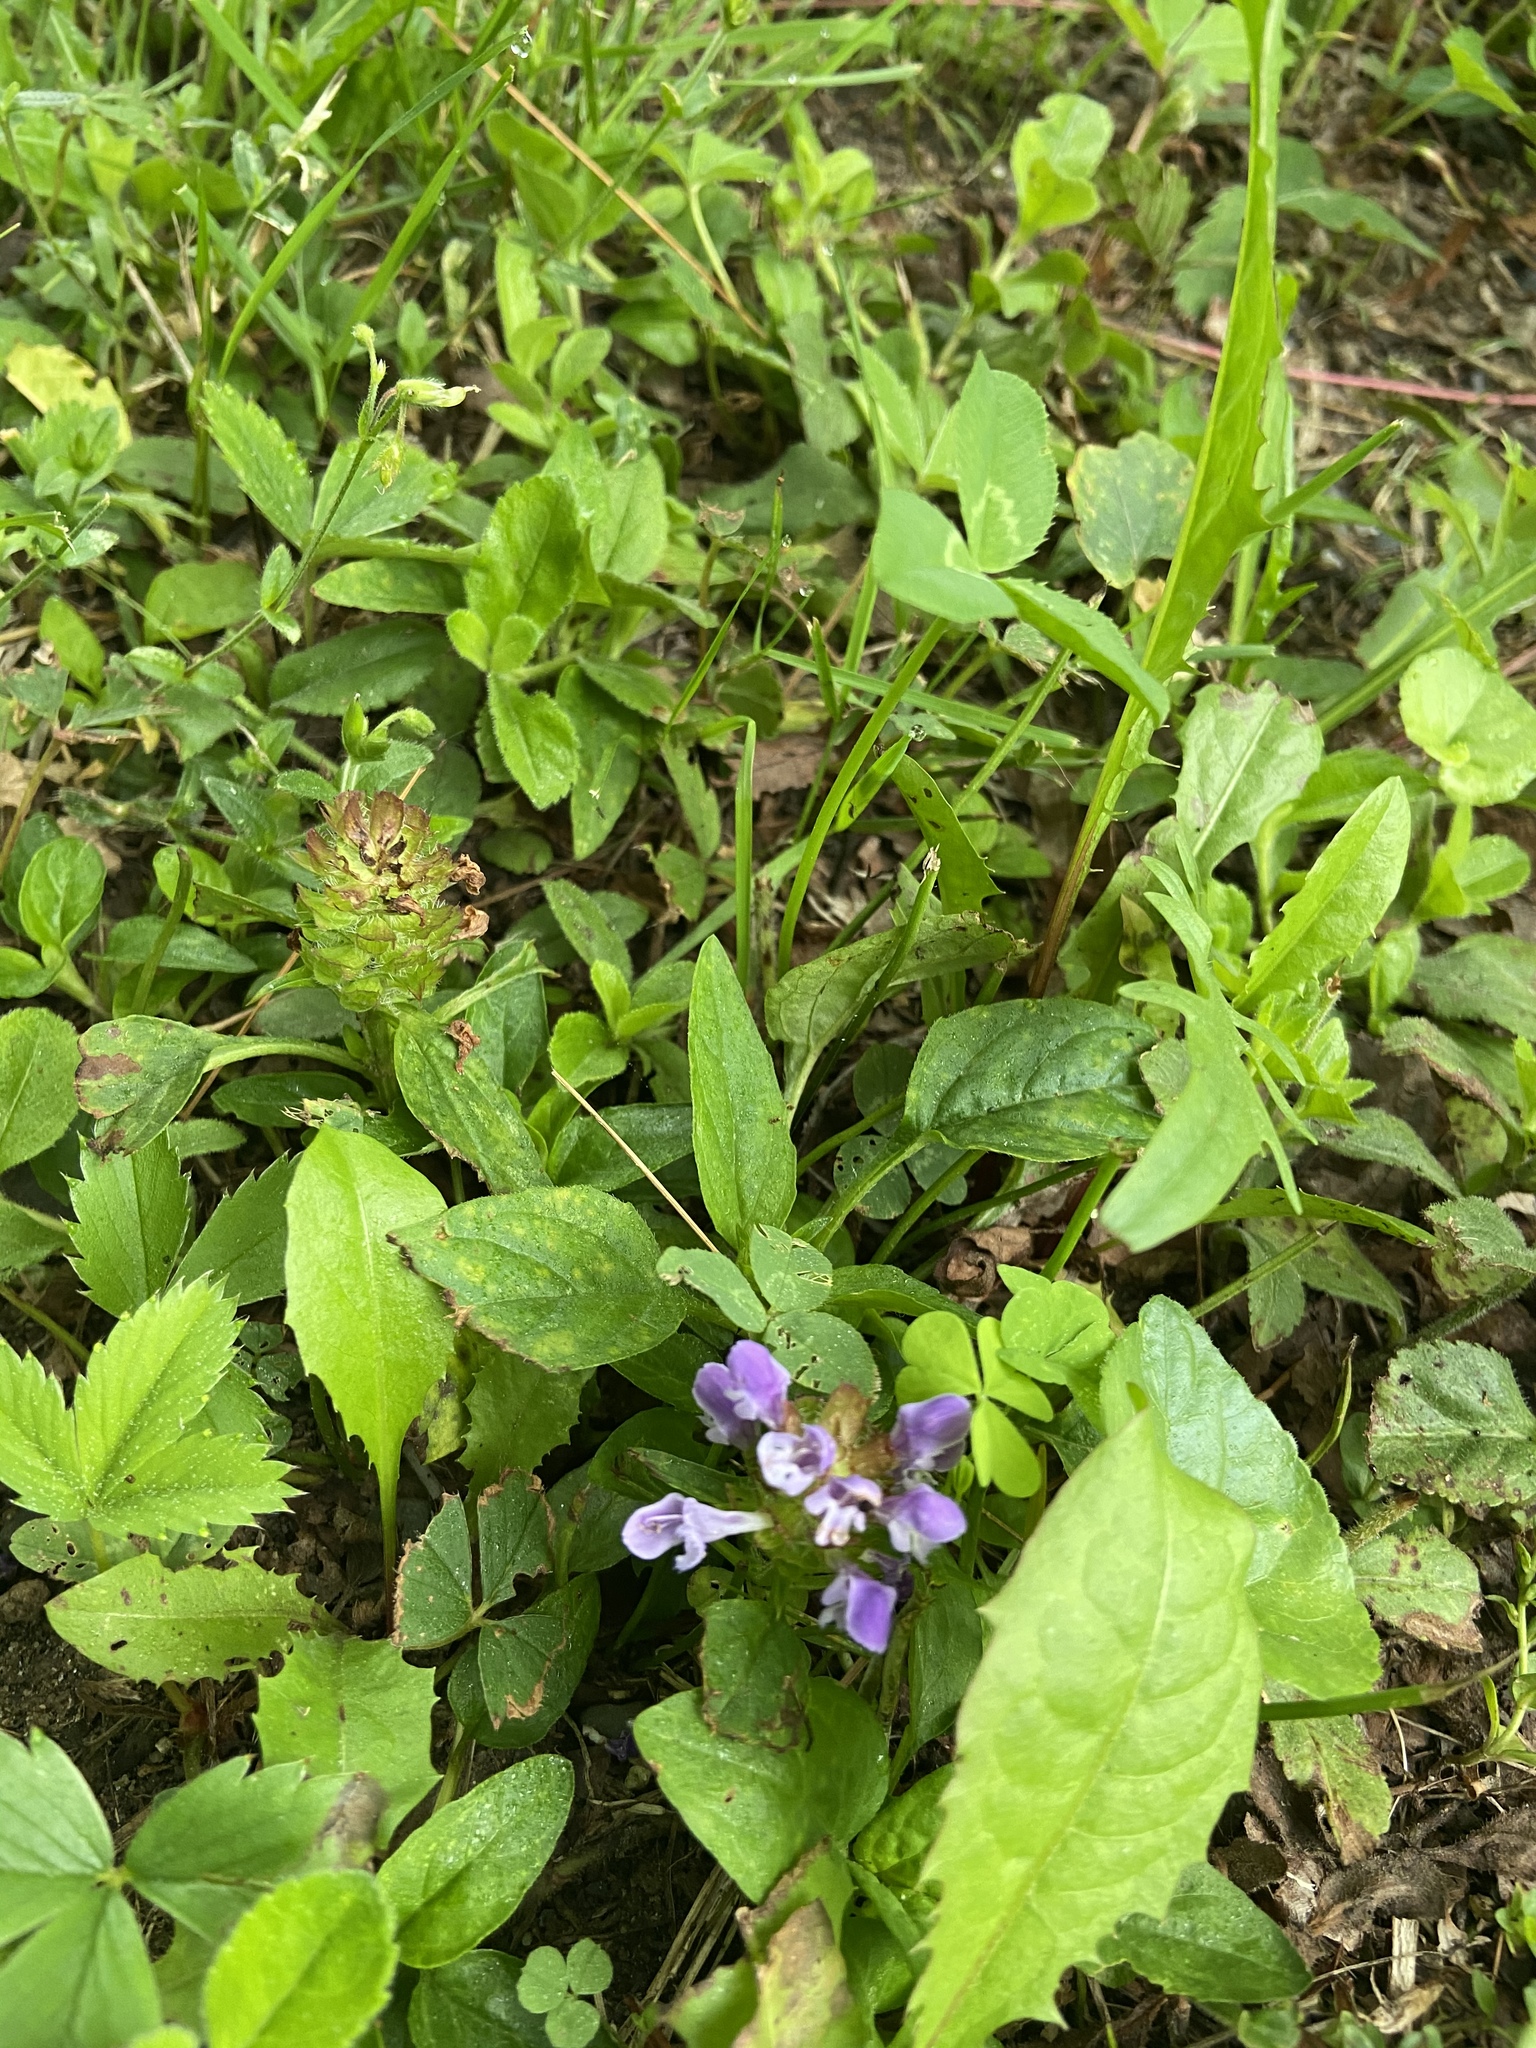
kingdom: Plantae
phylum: Tracheophyta
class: Magnoliopsida
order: Lamiales
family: Lamiaceae
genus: Prunella
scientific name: Prunella vulgaris
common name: Heal-all
